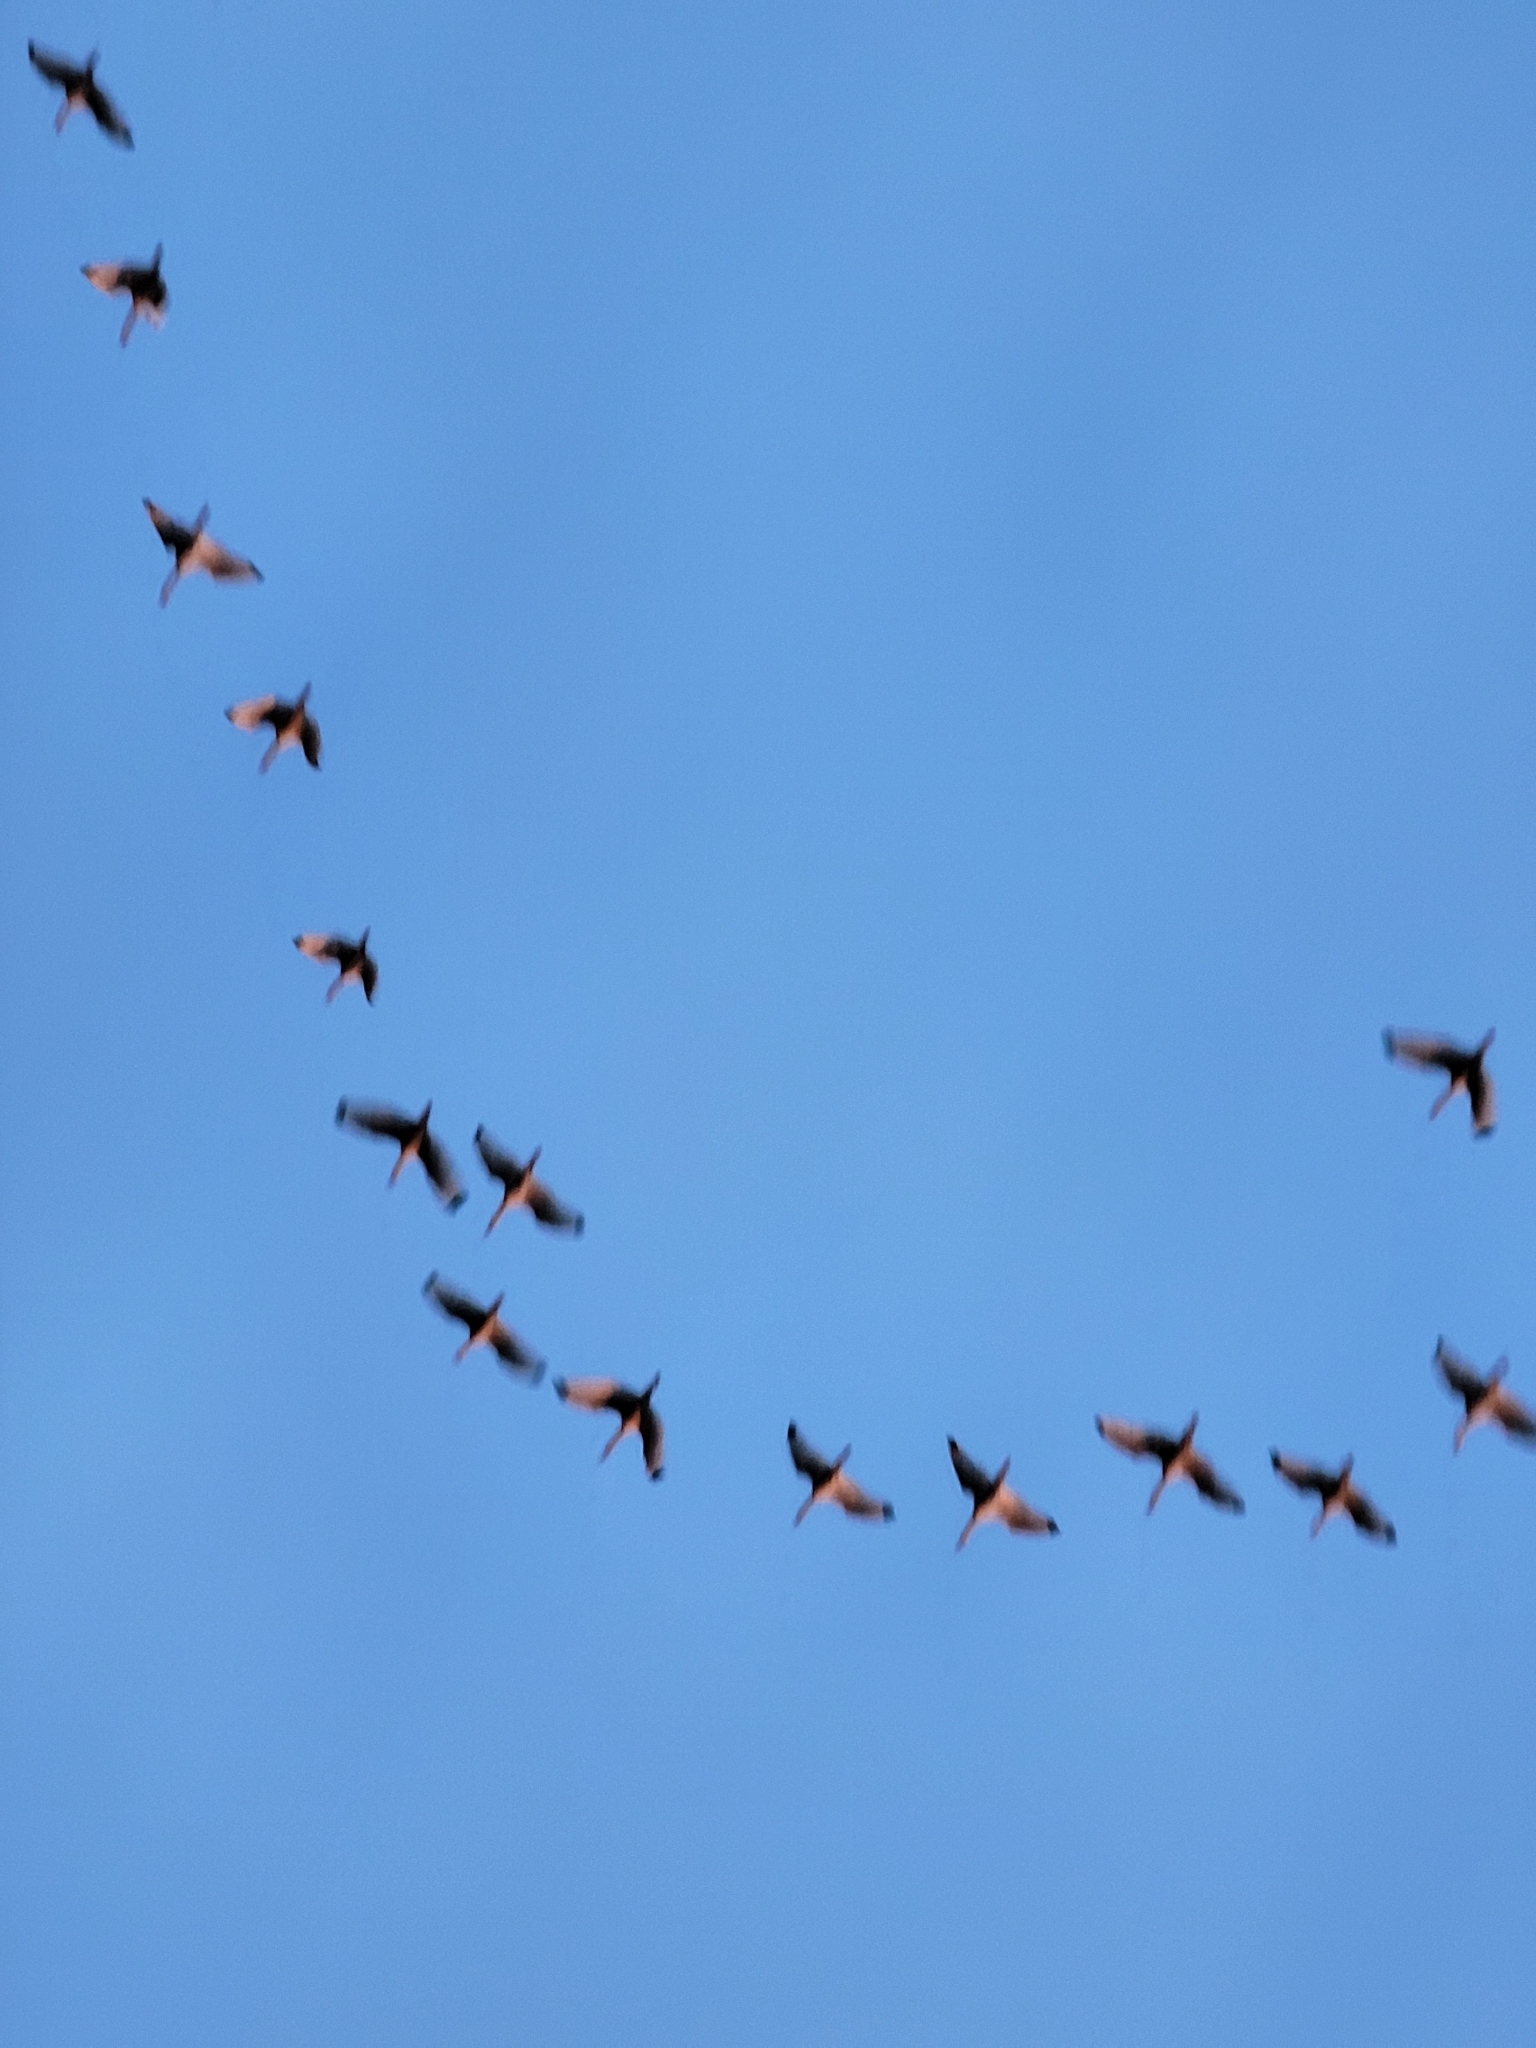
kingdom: Animalia
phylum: Chordata
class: Aves
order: Pelecaniformes
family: Threskiornithidae
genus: Eudocimus
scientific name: Eudocimus albus
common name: White ibis
